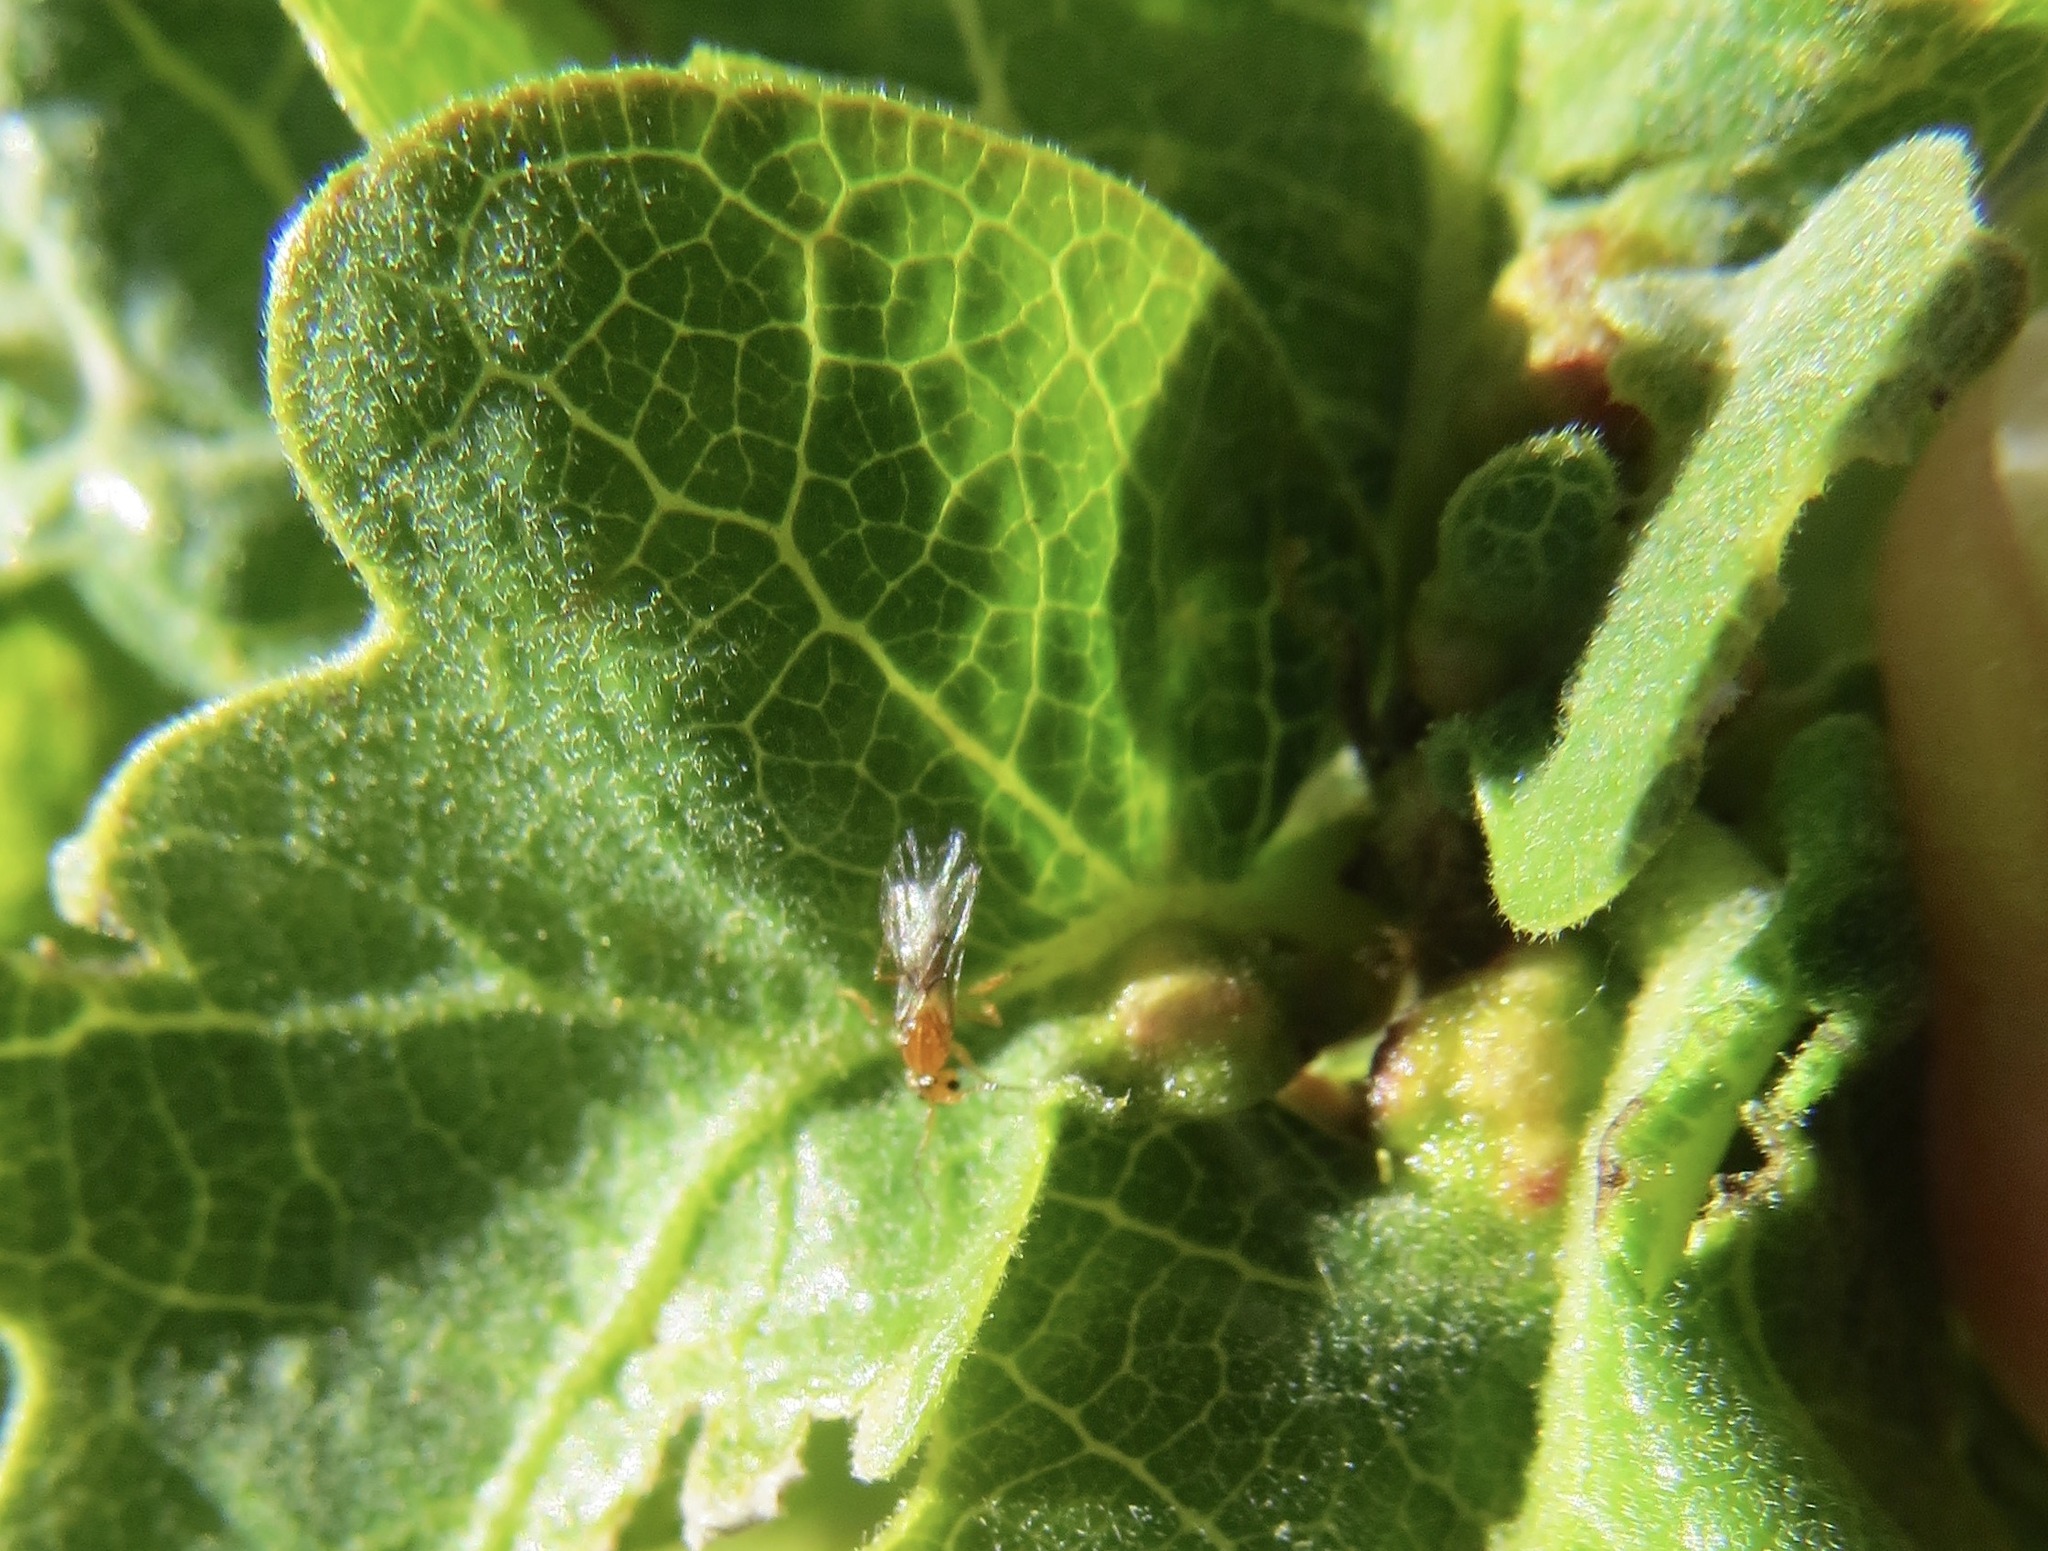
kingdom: Animalia
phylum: Arthropoda
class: Insecta
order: Hymenoptera
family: Cynipidae
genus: Neuroterus
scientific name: Neuroterus saltarius
